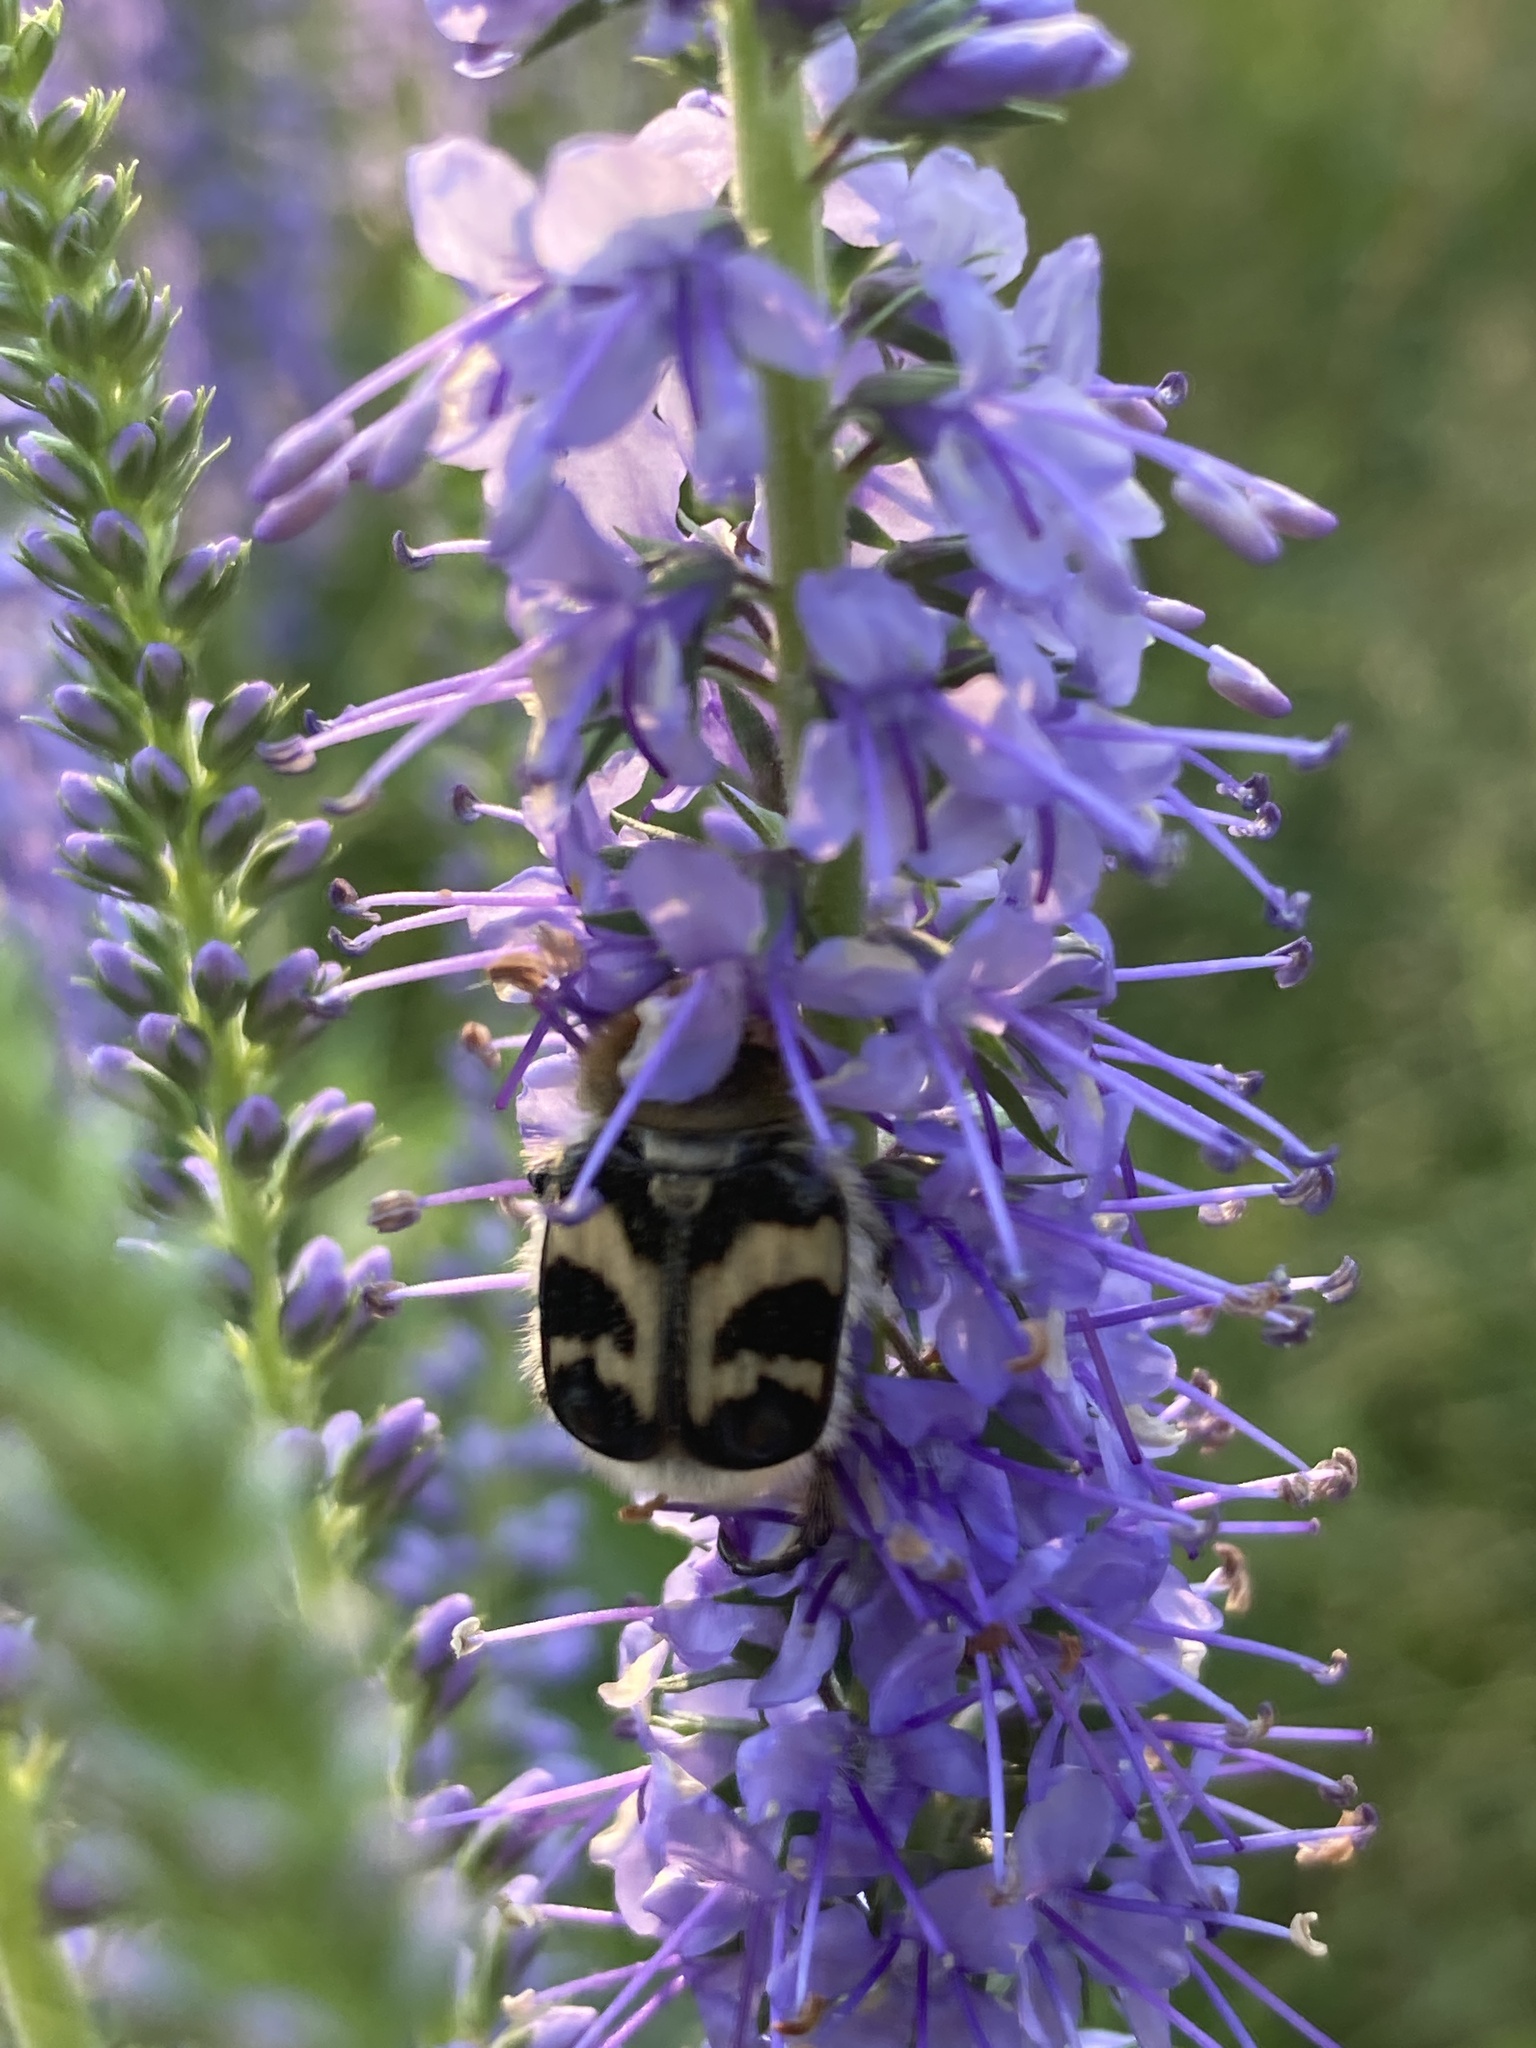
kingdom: Animalia
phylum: Arthropoda
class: Insecta
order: Coleoptera
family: Scarabaeidae
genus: Trichius
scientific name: Trichius fasciatus
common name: Bee beetle
